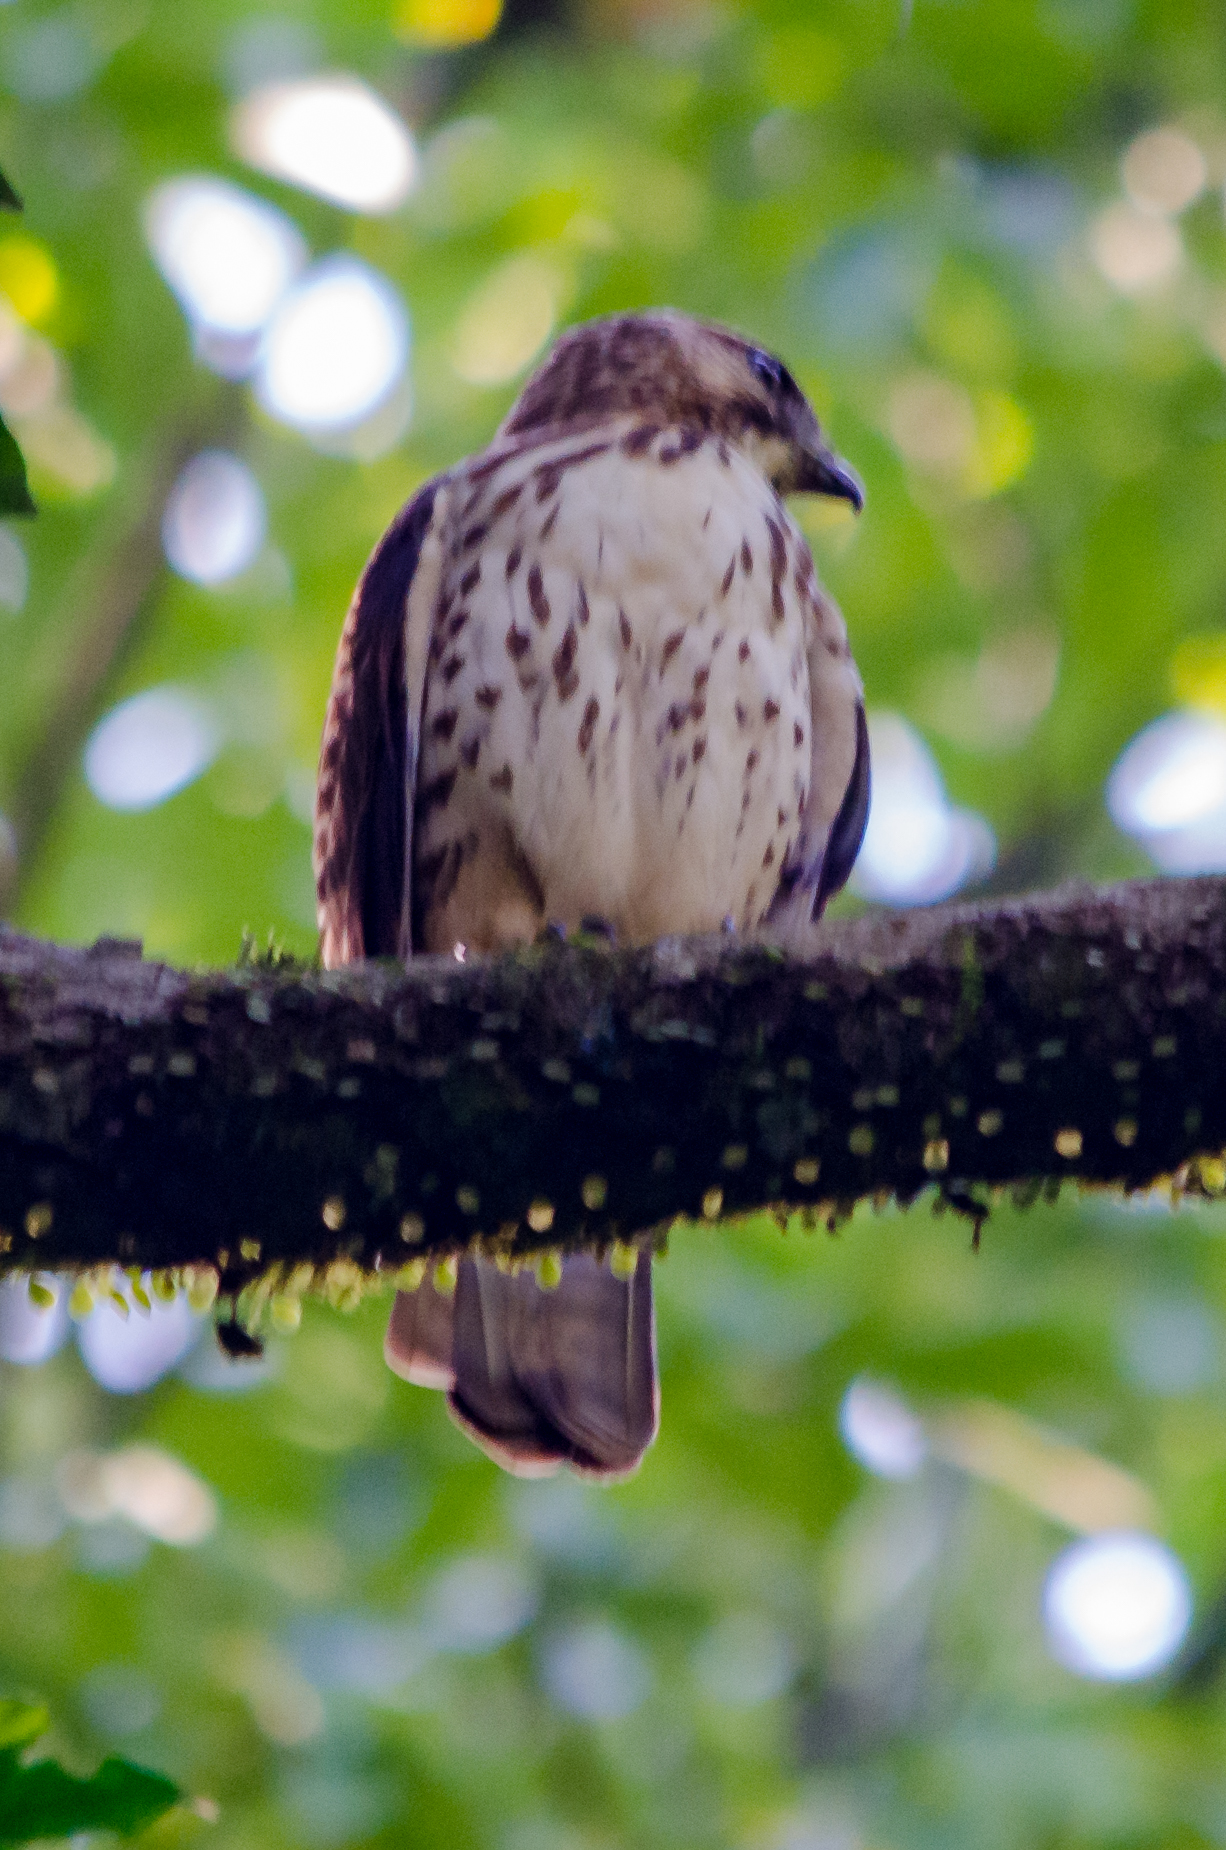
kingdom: Animalia
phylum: Chordata
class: Aves
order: Accipitriformes
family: Accipitridae
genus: Buteo
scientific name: Buteo platypterus
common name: Broad-winged hawk
